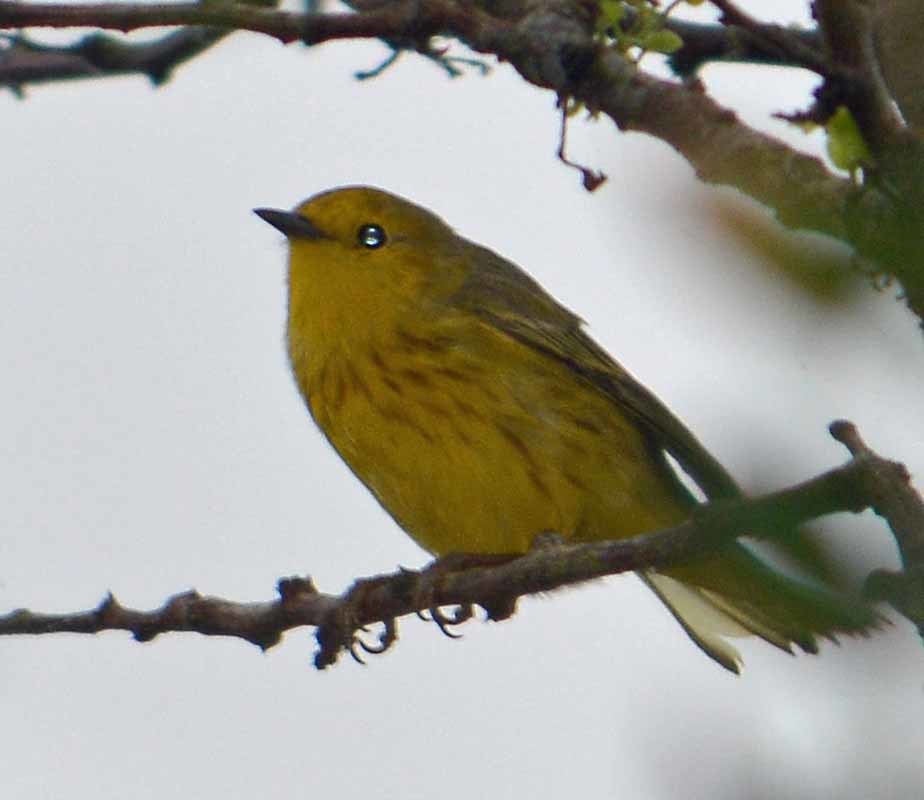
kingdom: Animalia
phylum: Chordata
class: Aves
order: Passeriformes
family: Parulidae
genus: Setophaga
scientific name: Setophaga petechia
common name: Yellow warbler
